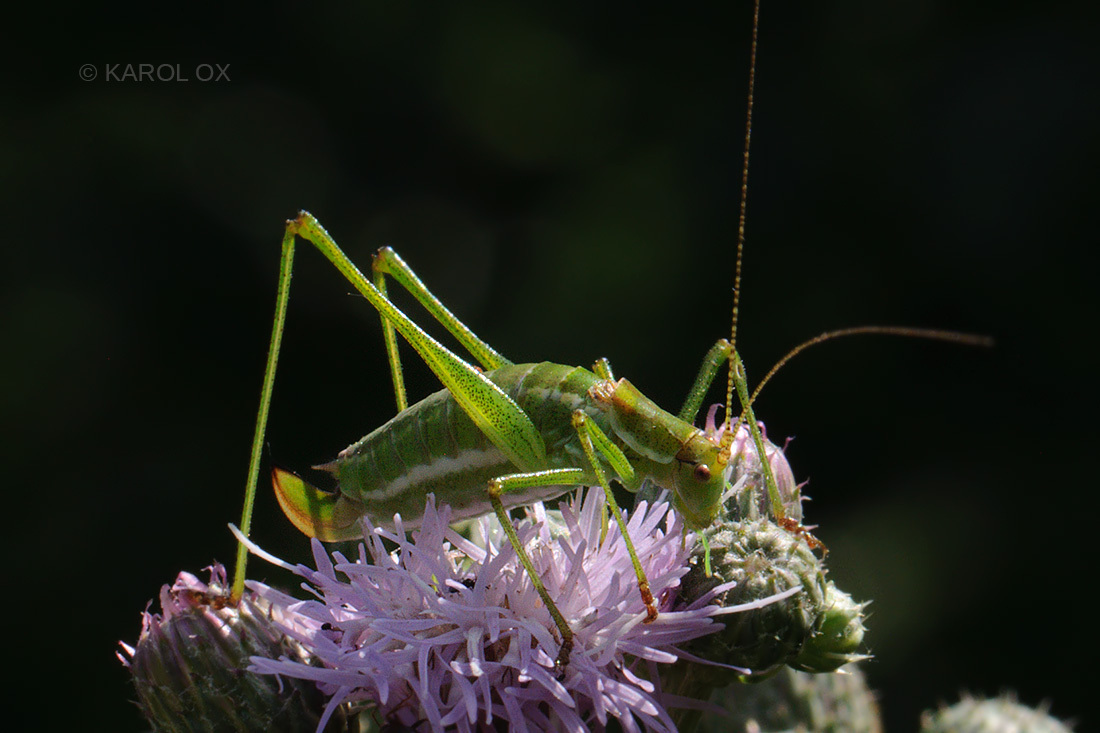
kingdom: Animalia
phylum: Arthropoda
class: Insecta
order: Orthoptera
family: Tettigoniidae
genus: Leptophyes
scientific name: Leptophyes albovittata
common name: Striped bush-cricket
